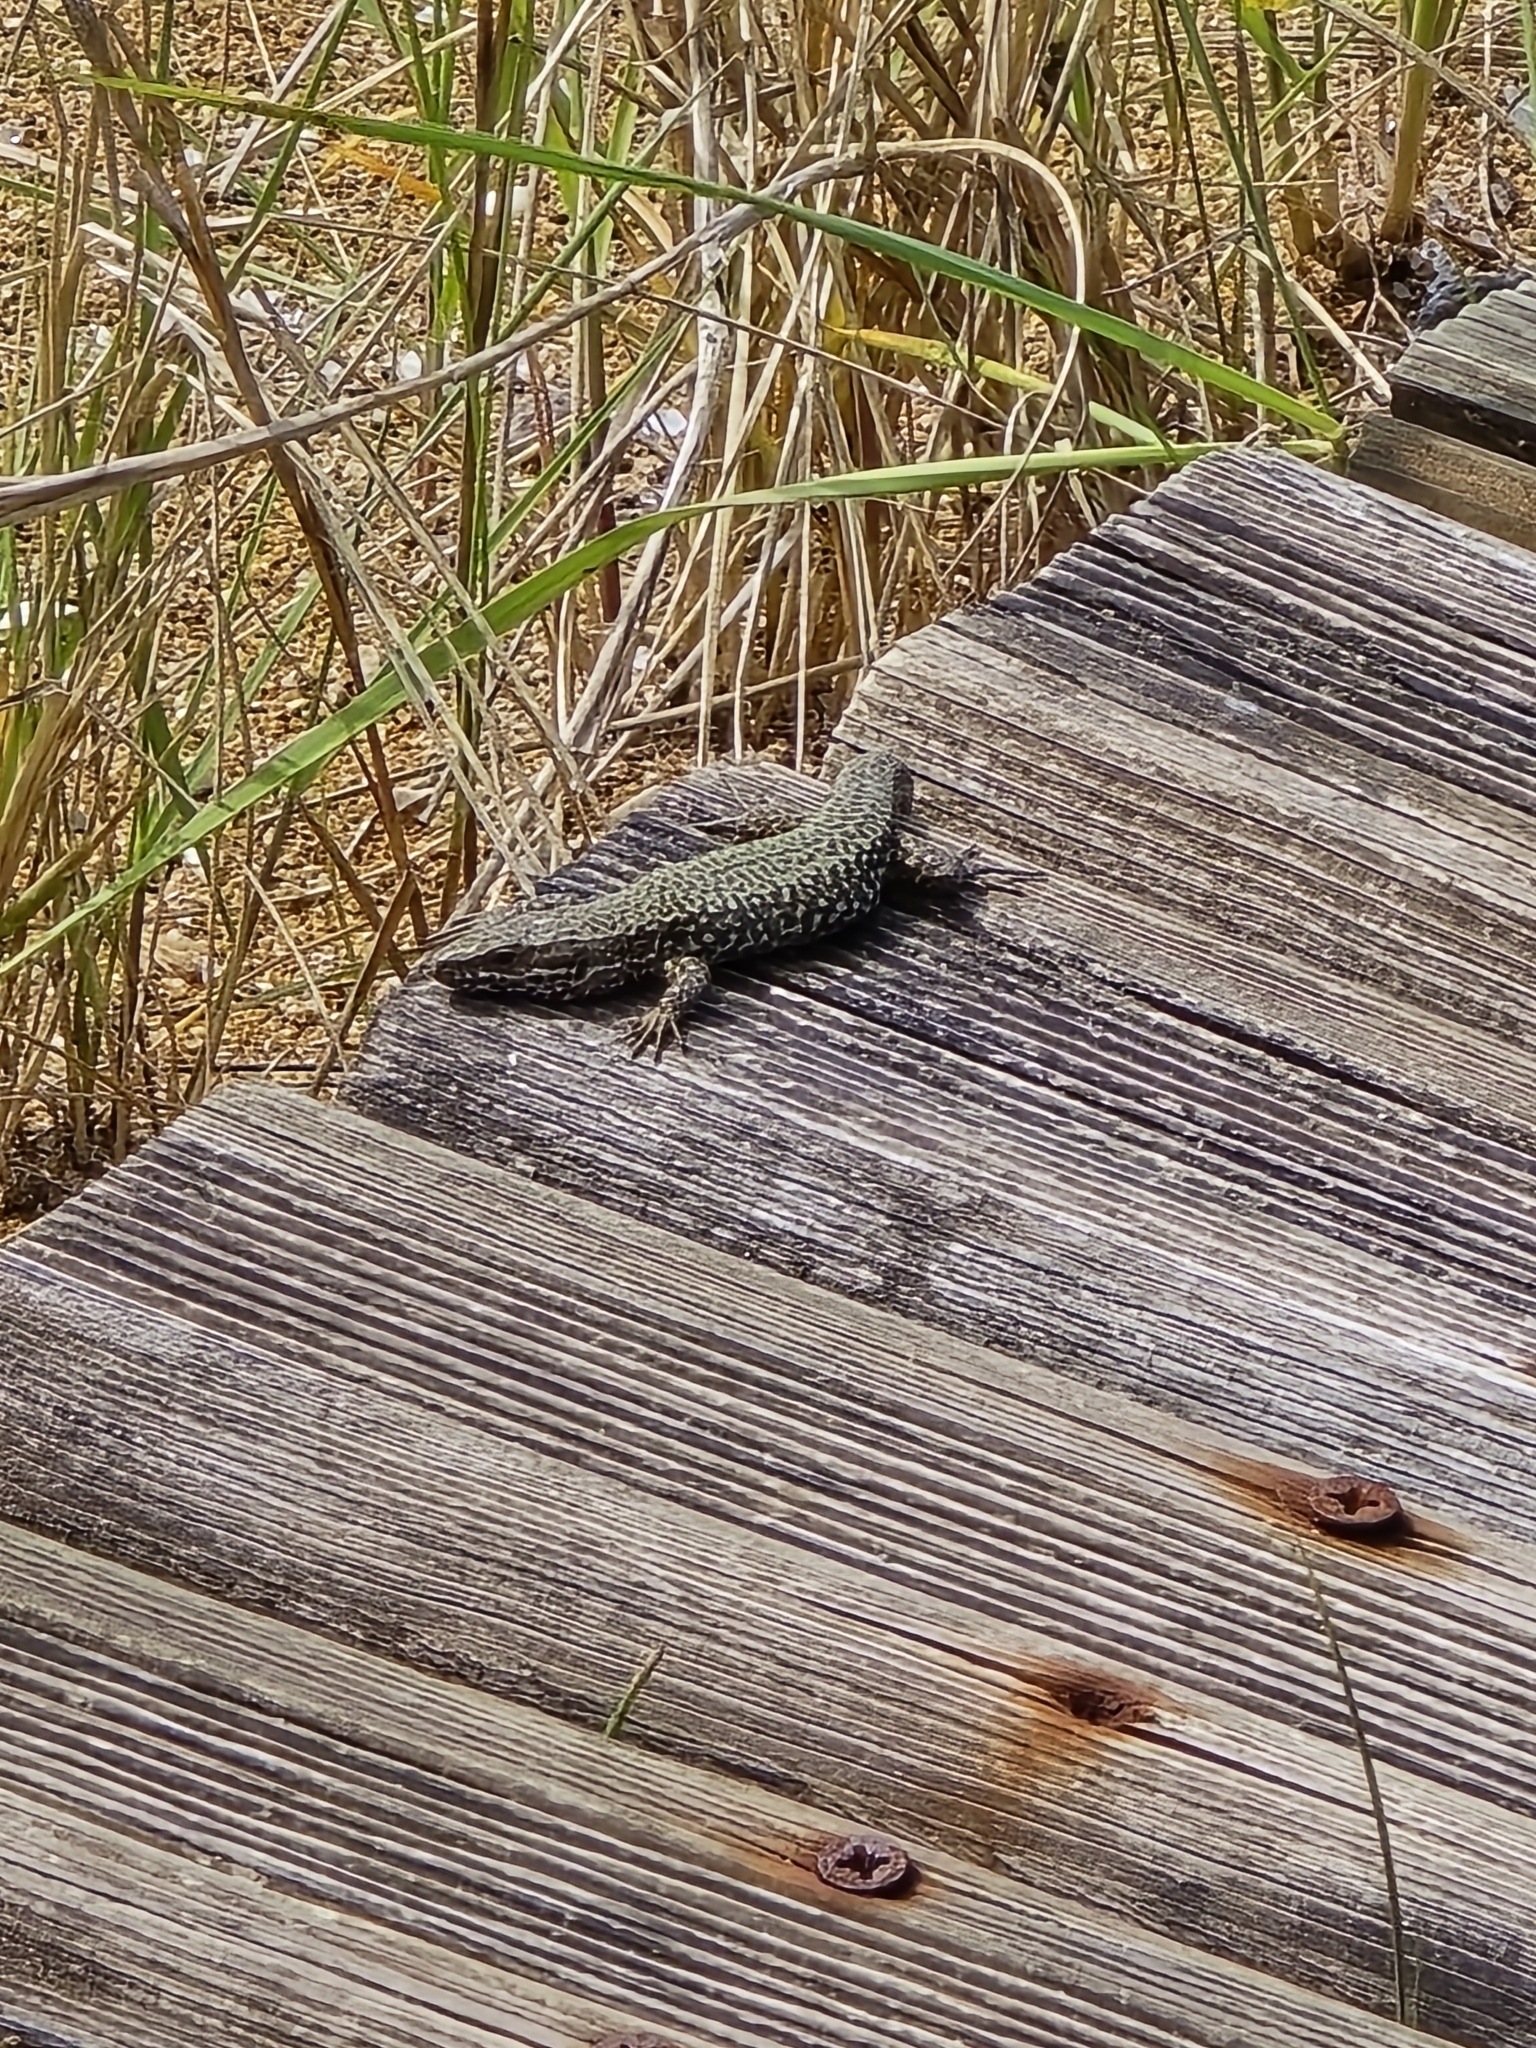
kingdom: Animalia
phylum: Chordata
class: Squamata
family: Lacertidae
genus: Podarcis
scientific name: Podarcis muralis
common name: Common wall lizard
